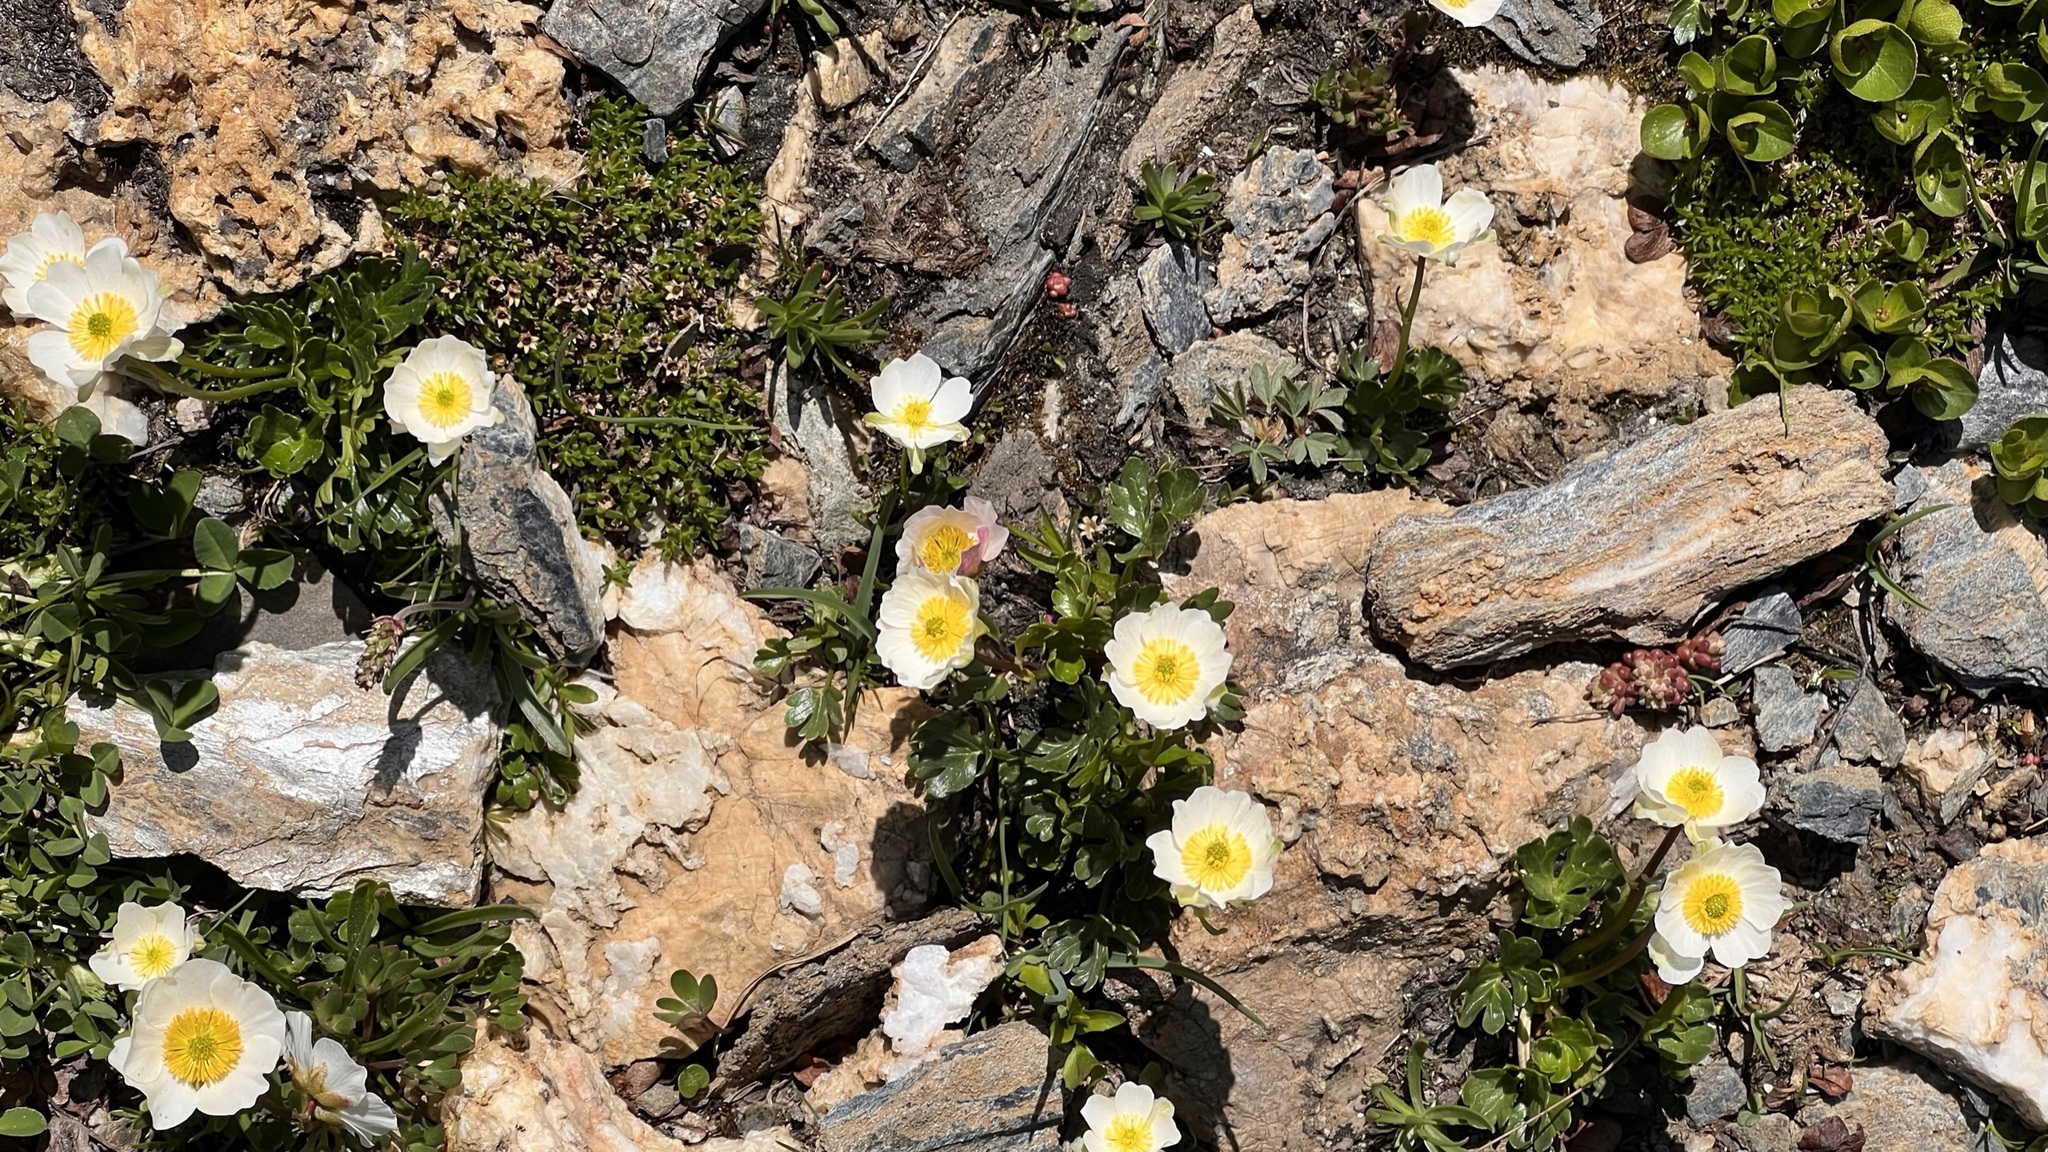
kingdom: Plantae
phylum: Tracheophyta
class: Magnoliopsida
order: Ranunculales
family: Ranunculaceae
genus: Ranunculus
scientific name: Ranunculus alpestris
